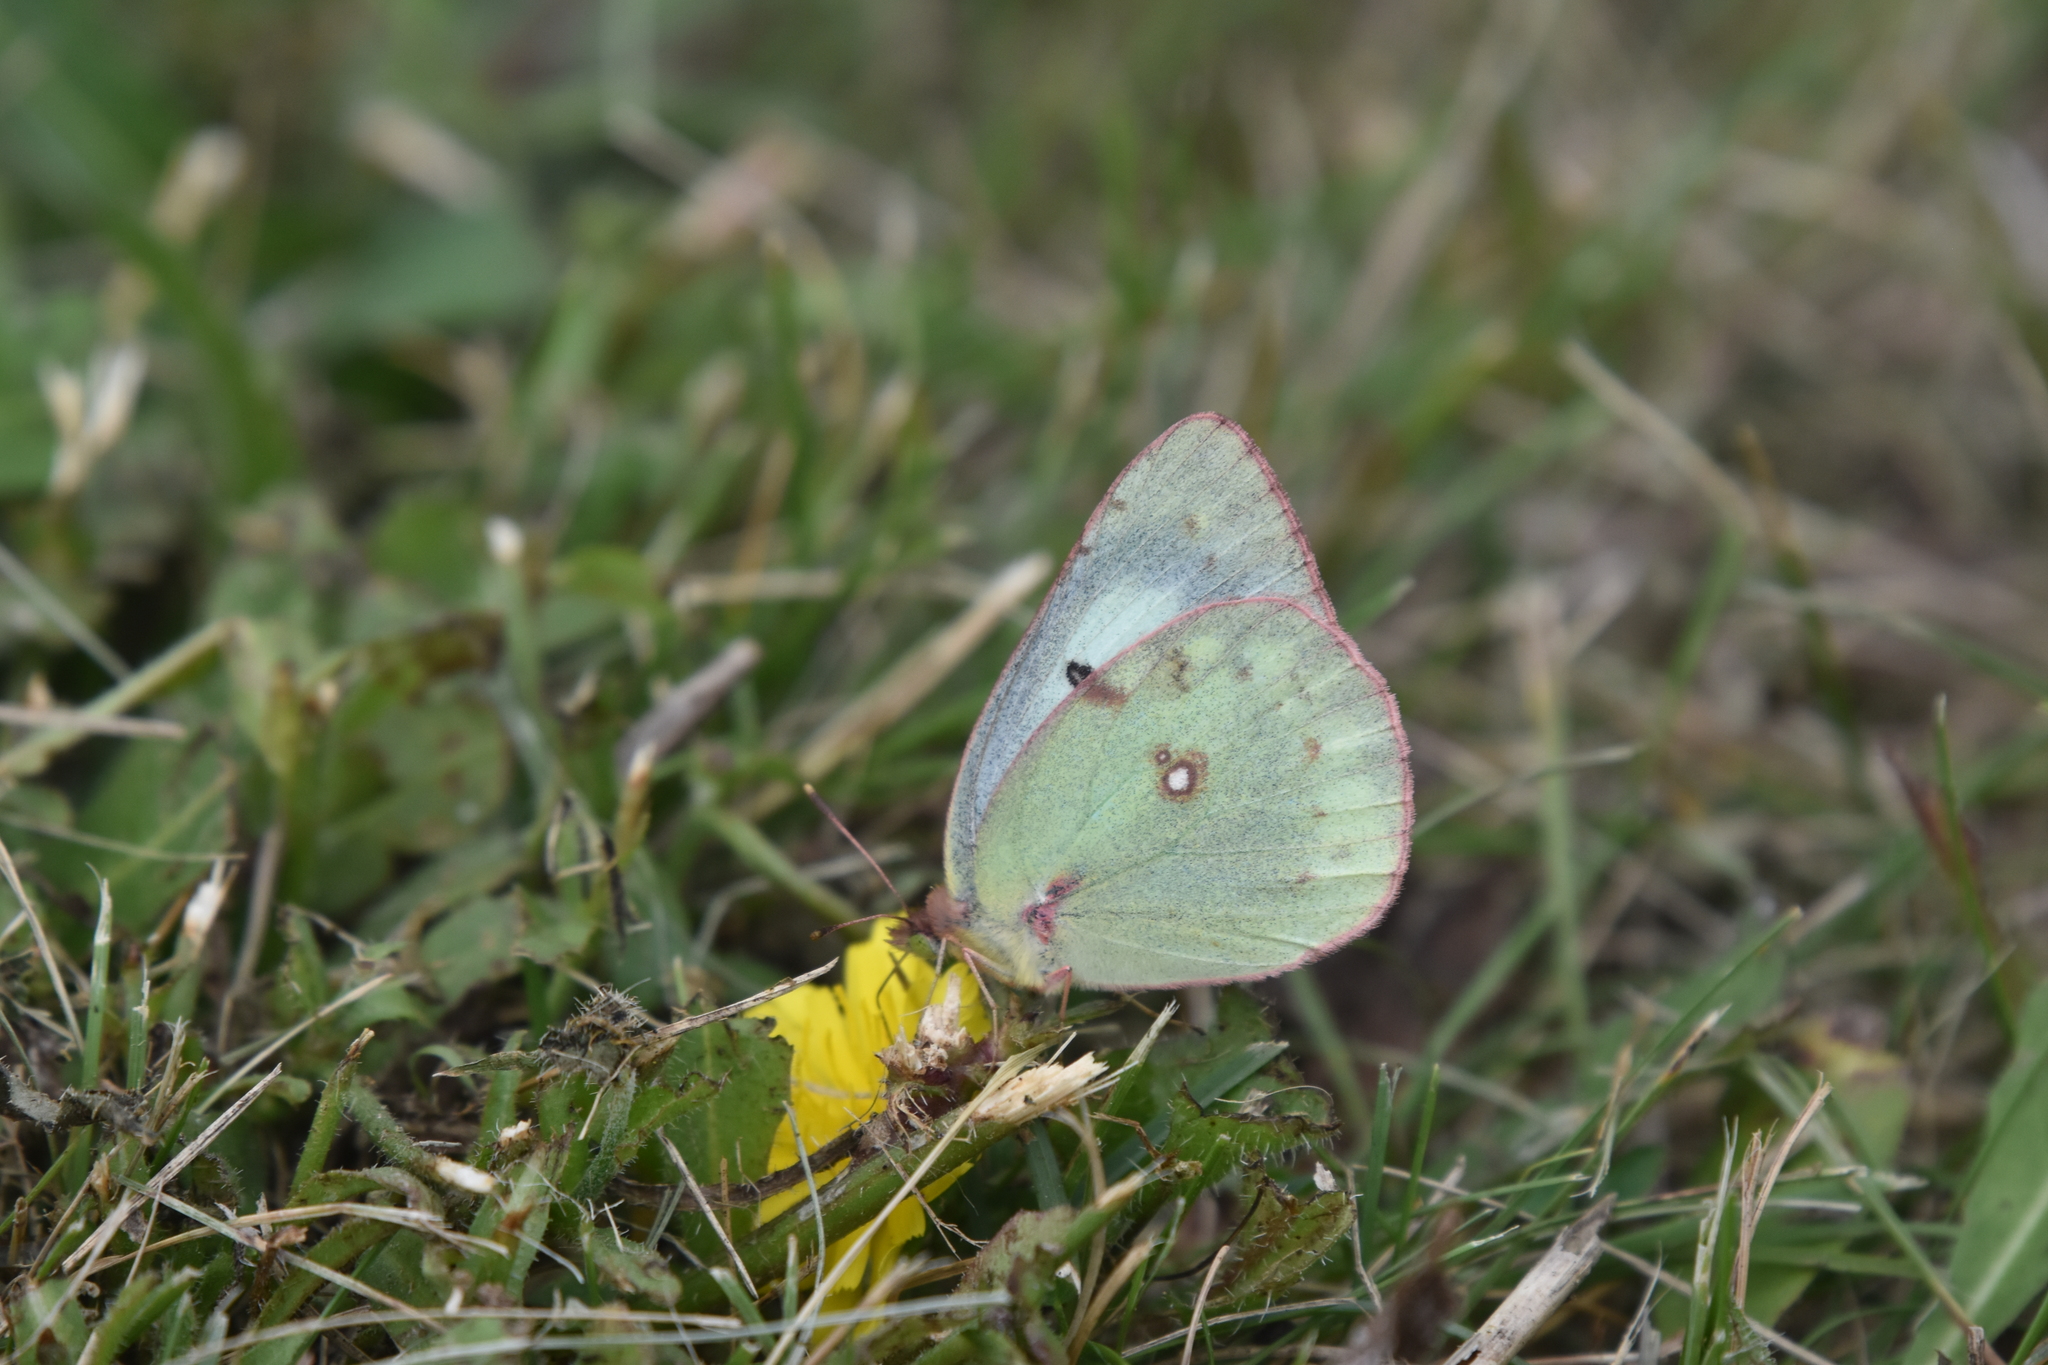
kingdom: Animalia
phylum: Arthropoda
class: Insecta
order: Lepidoptera
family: Pieridae
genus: Colias
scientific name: Colias philodice
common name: Clouded sulphur
